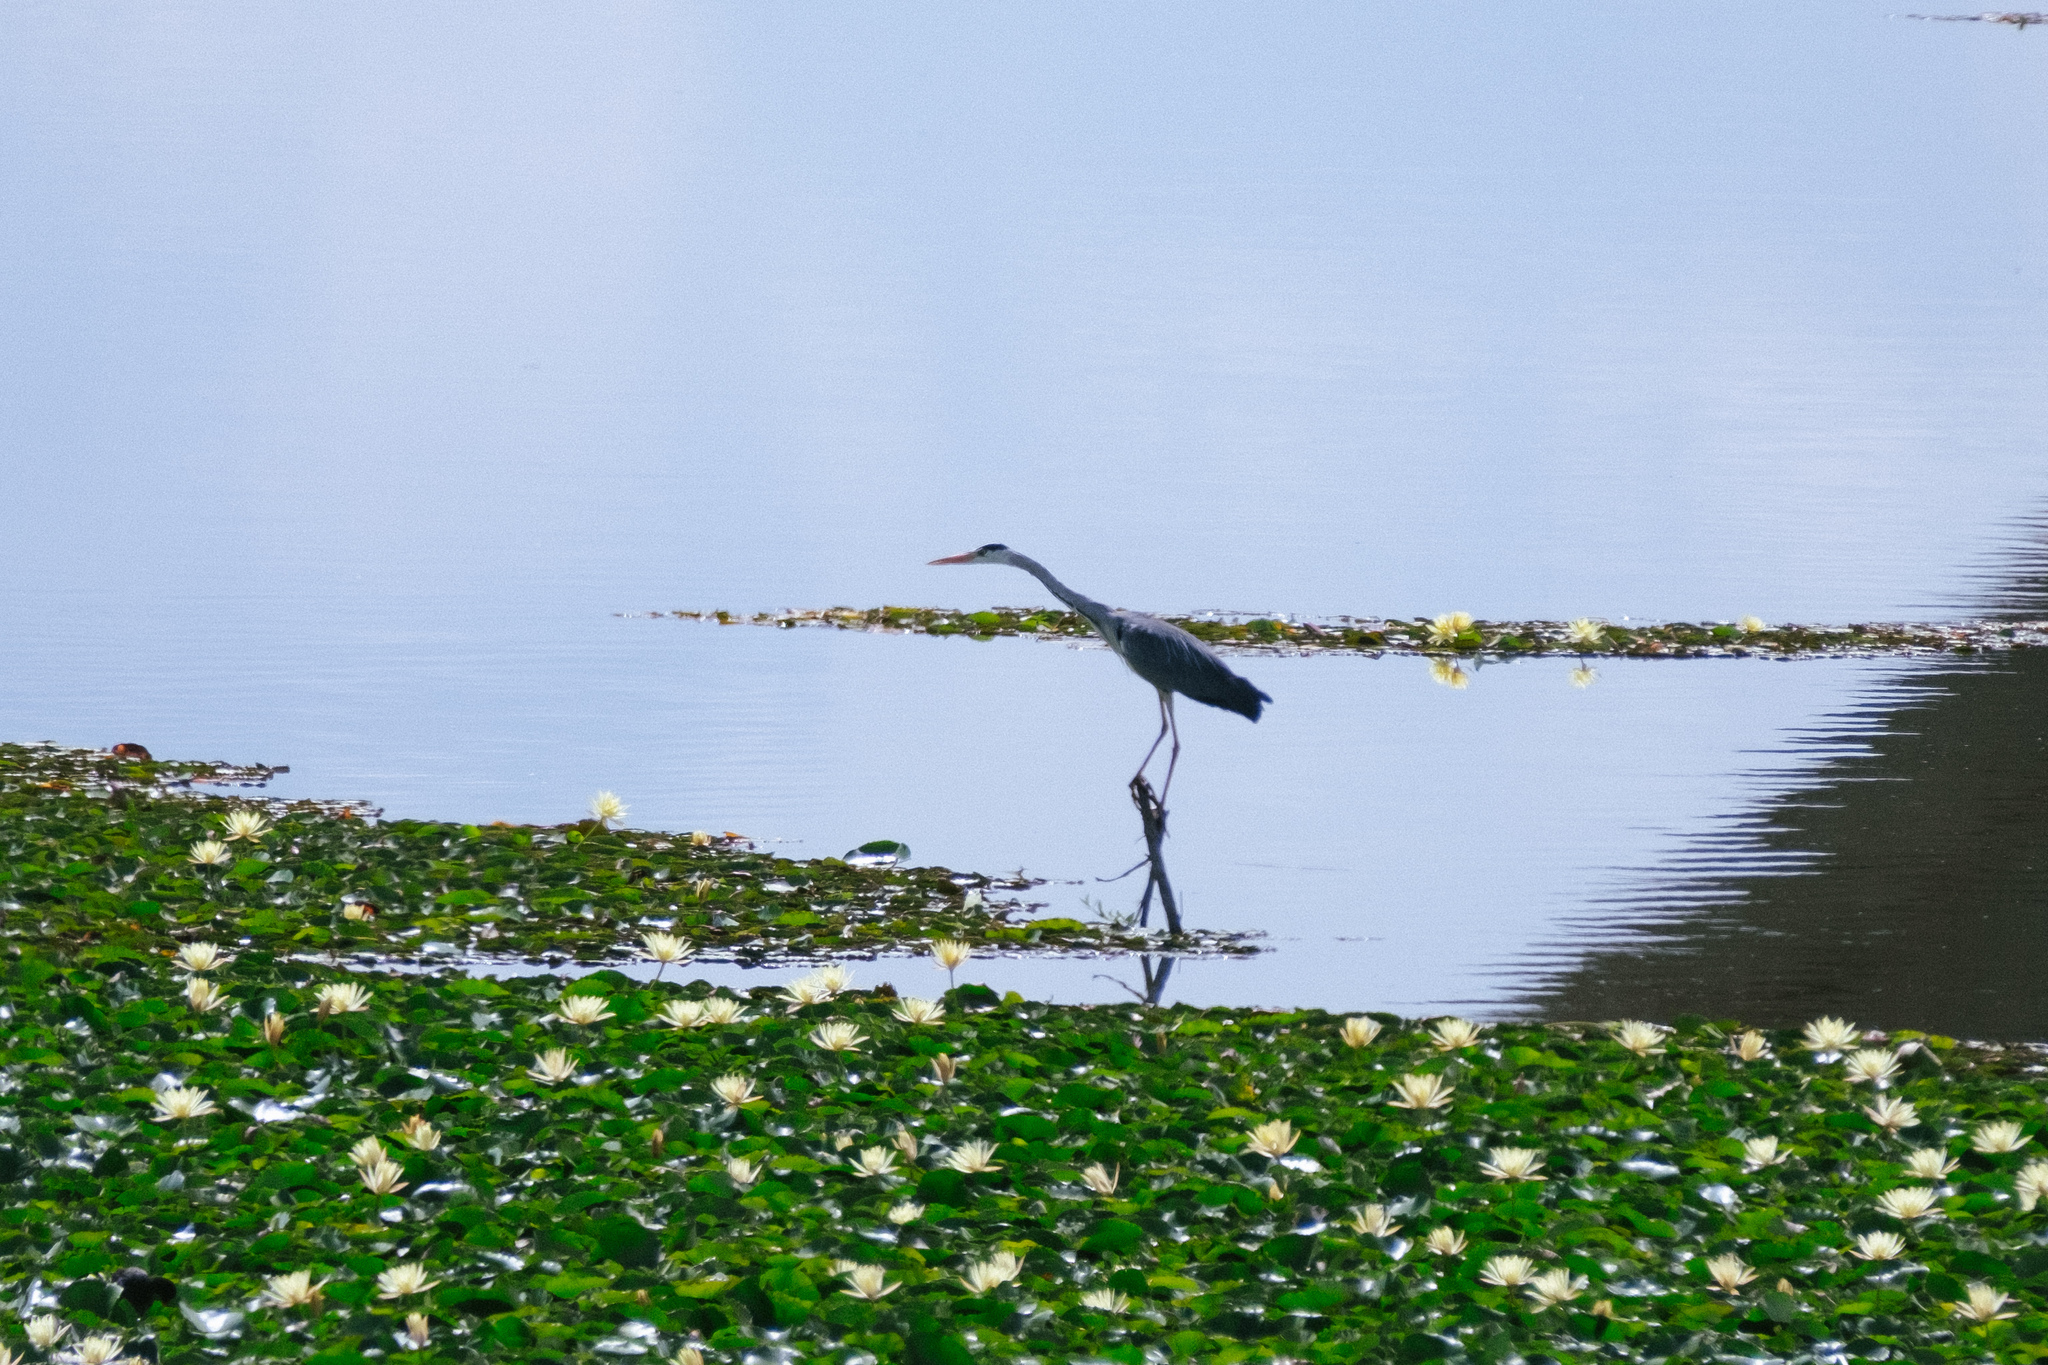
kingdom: Animalia
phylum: Chordata
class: Aves
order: Pelecaniformes
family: Ardeidae
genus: Ardea
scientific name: Ardea cinerea
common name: Grey heron
